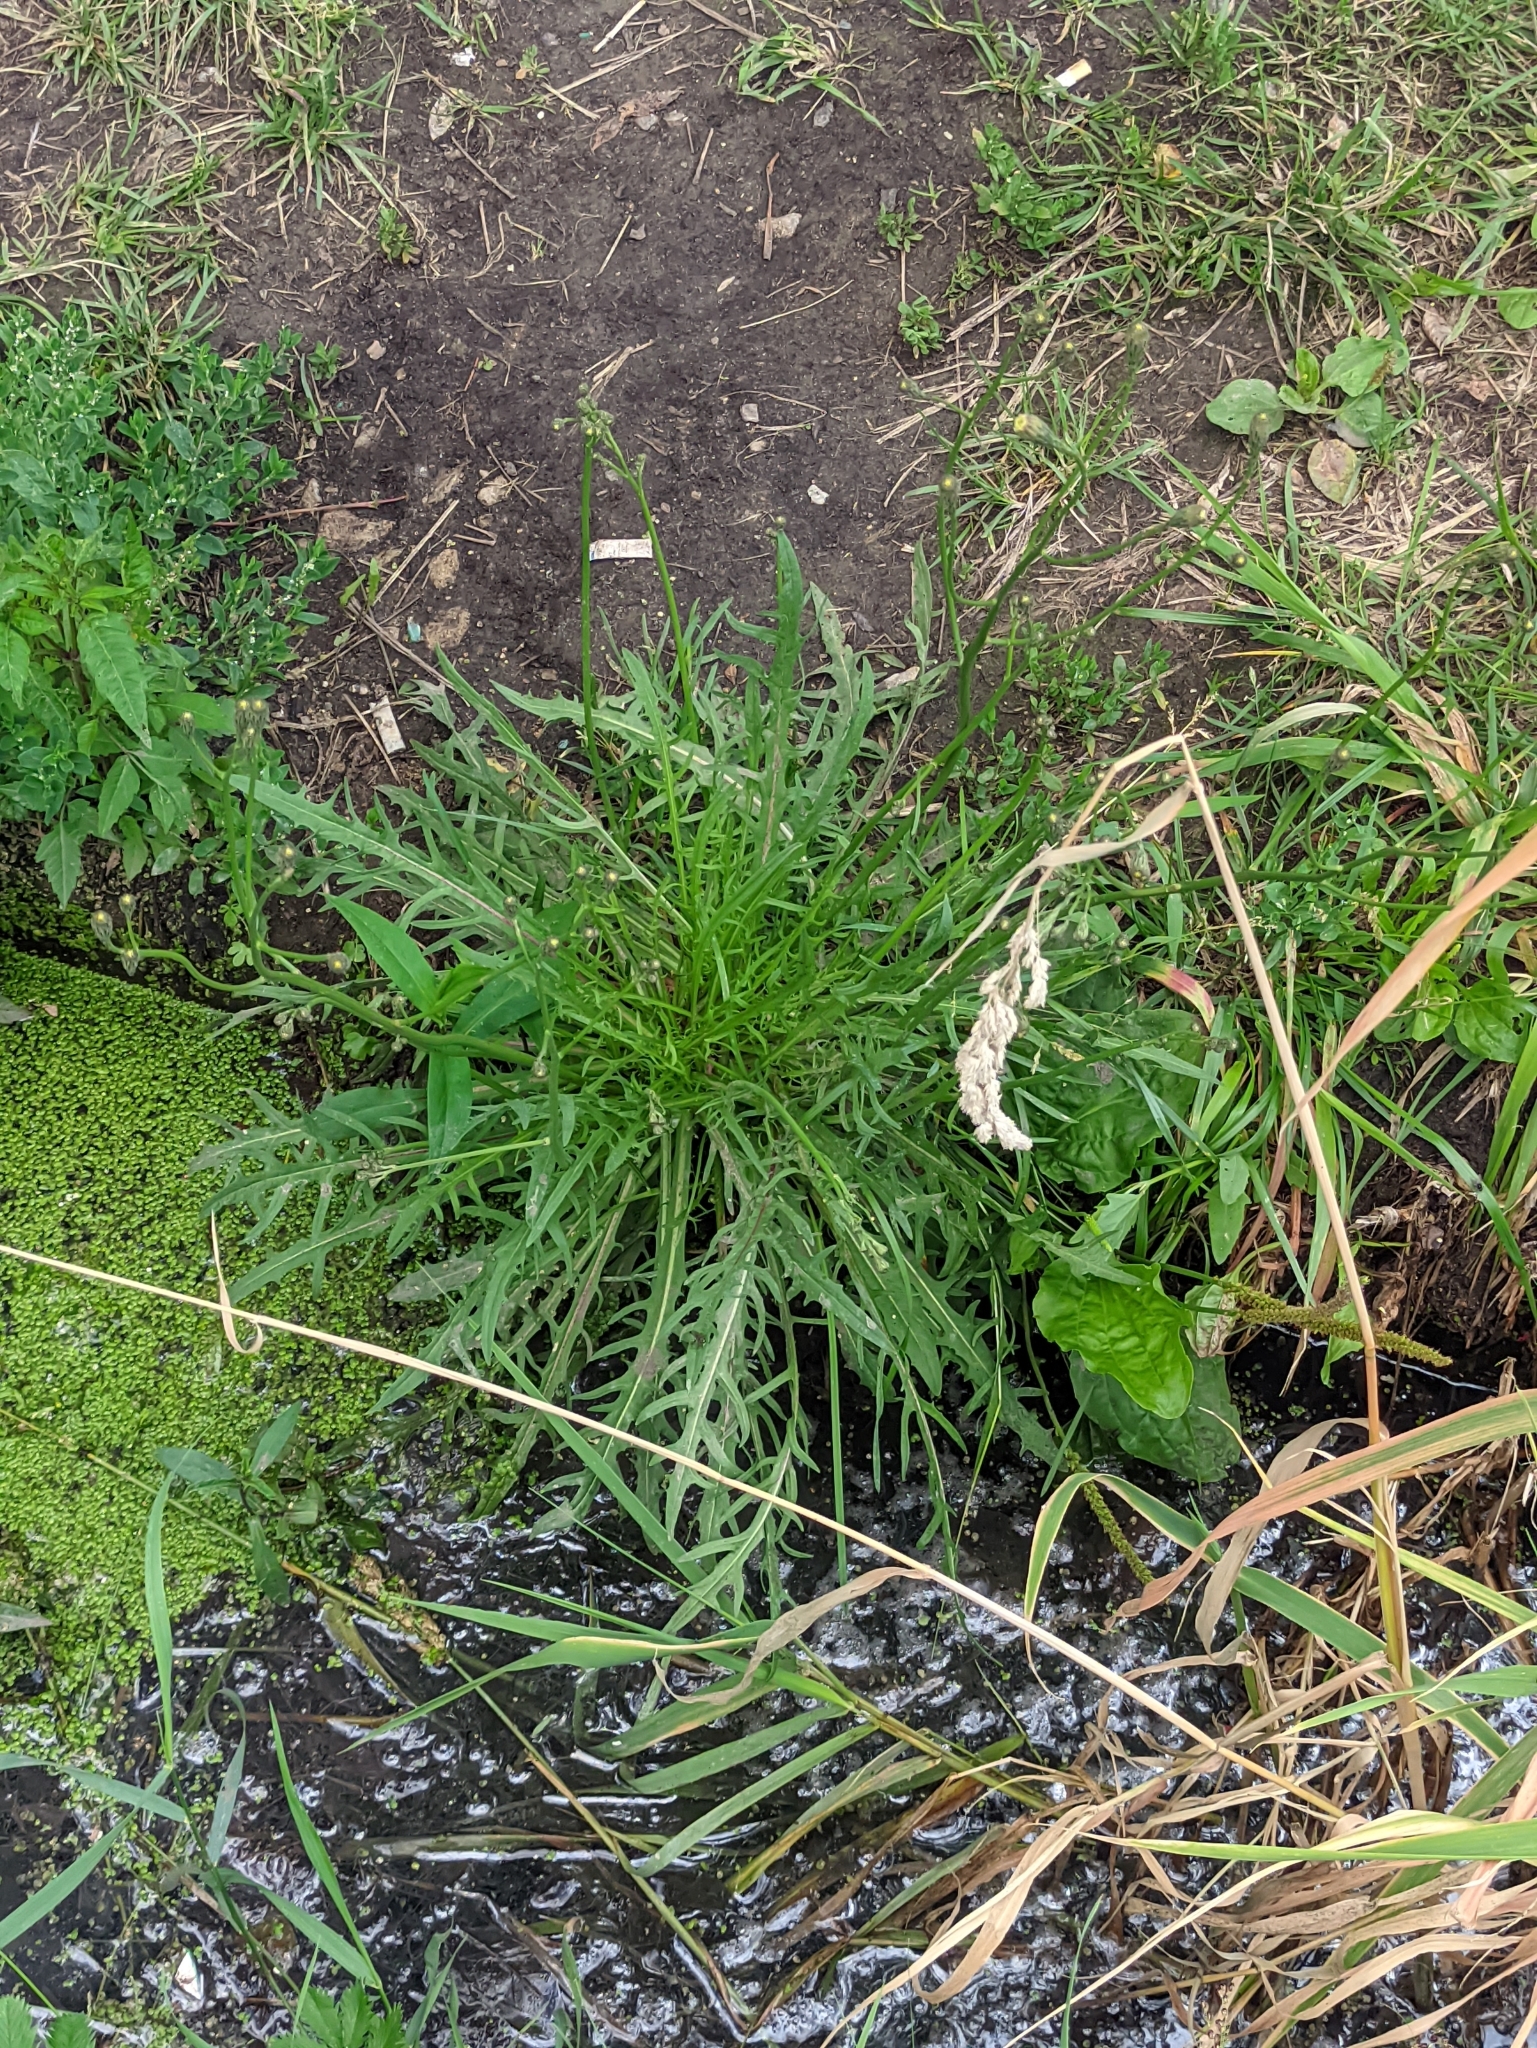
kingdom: Plantae
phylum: Tracheophyta
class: Magnoliopsida
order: Asterales
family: Asteraceae
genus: Scorzoneroides
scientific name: Scorzoneroides autumnalis
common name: Autumn hawkbit
